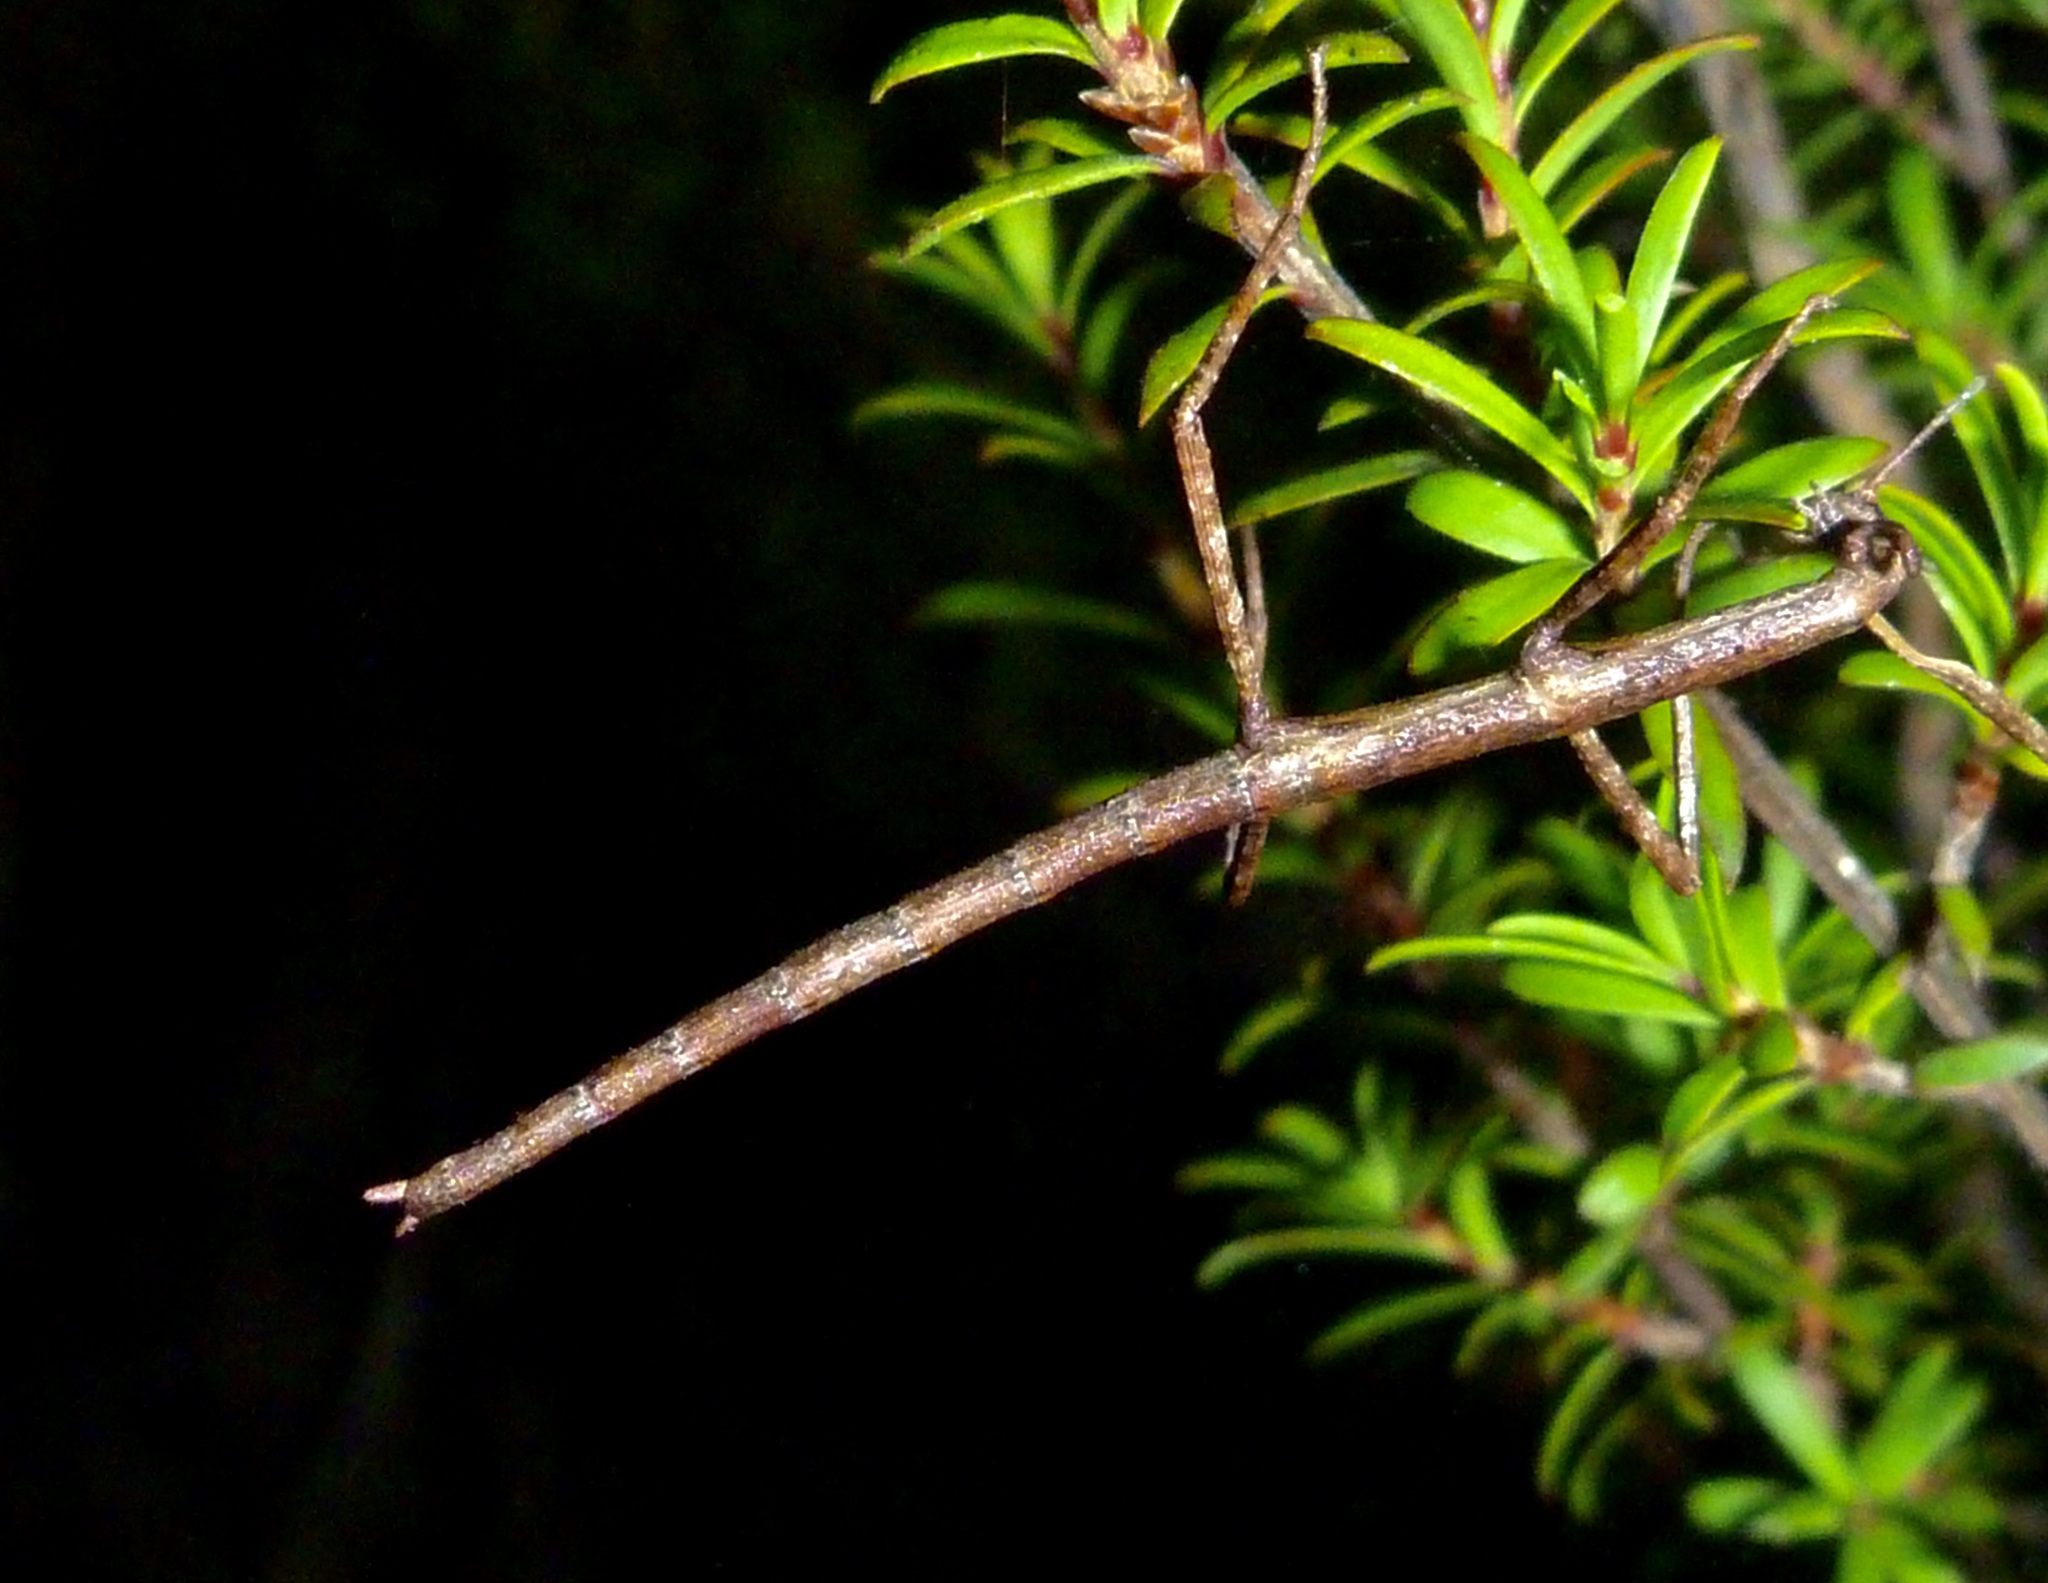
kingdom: Animalia
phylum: Arthropoda
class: Insecta
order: Phasmida
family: Phasmatidae
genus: Clitarchus
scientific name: Clitarchus hookeri
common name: Smooth stick insect
